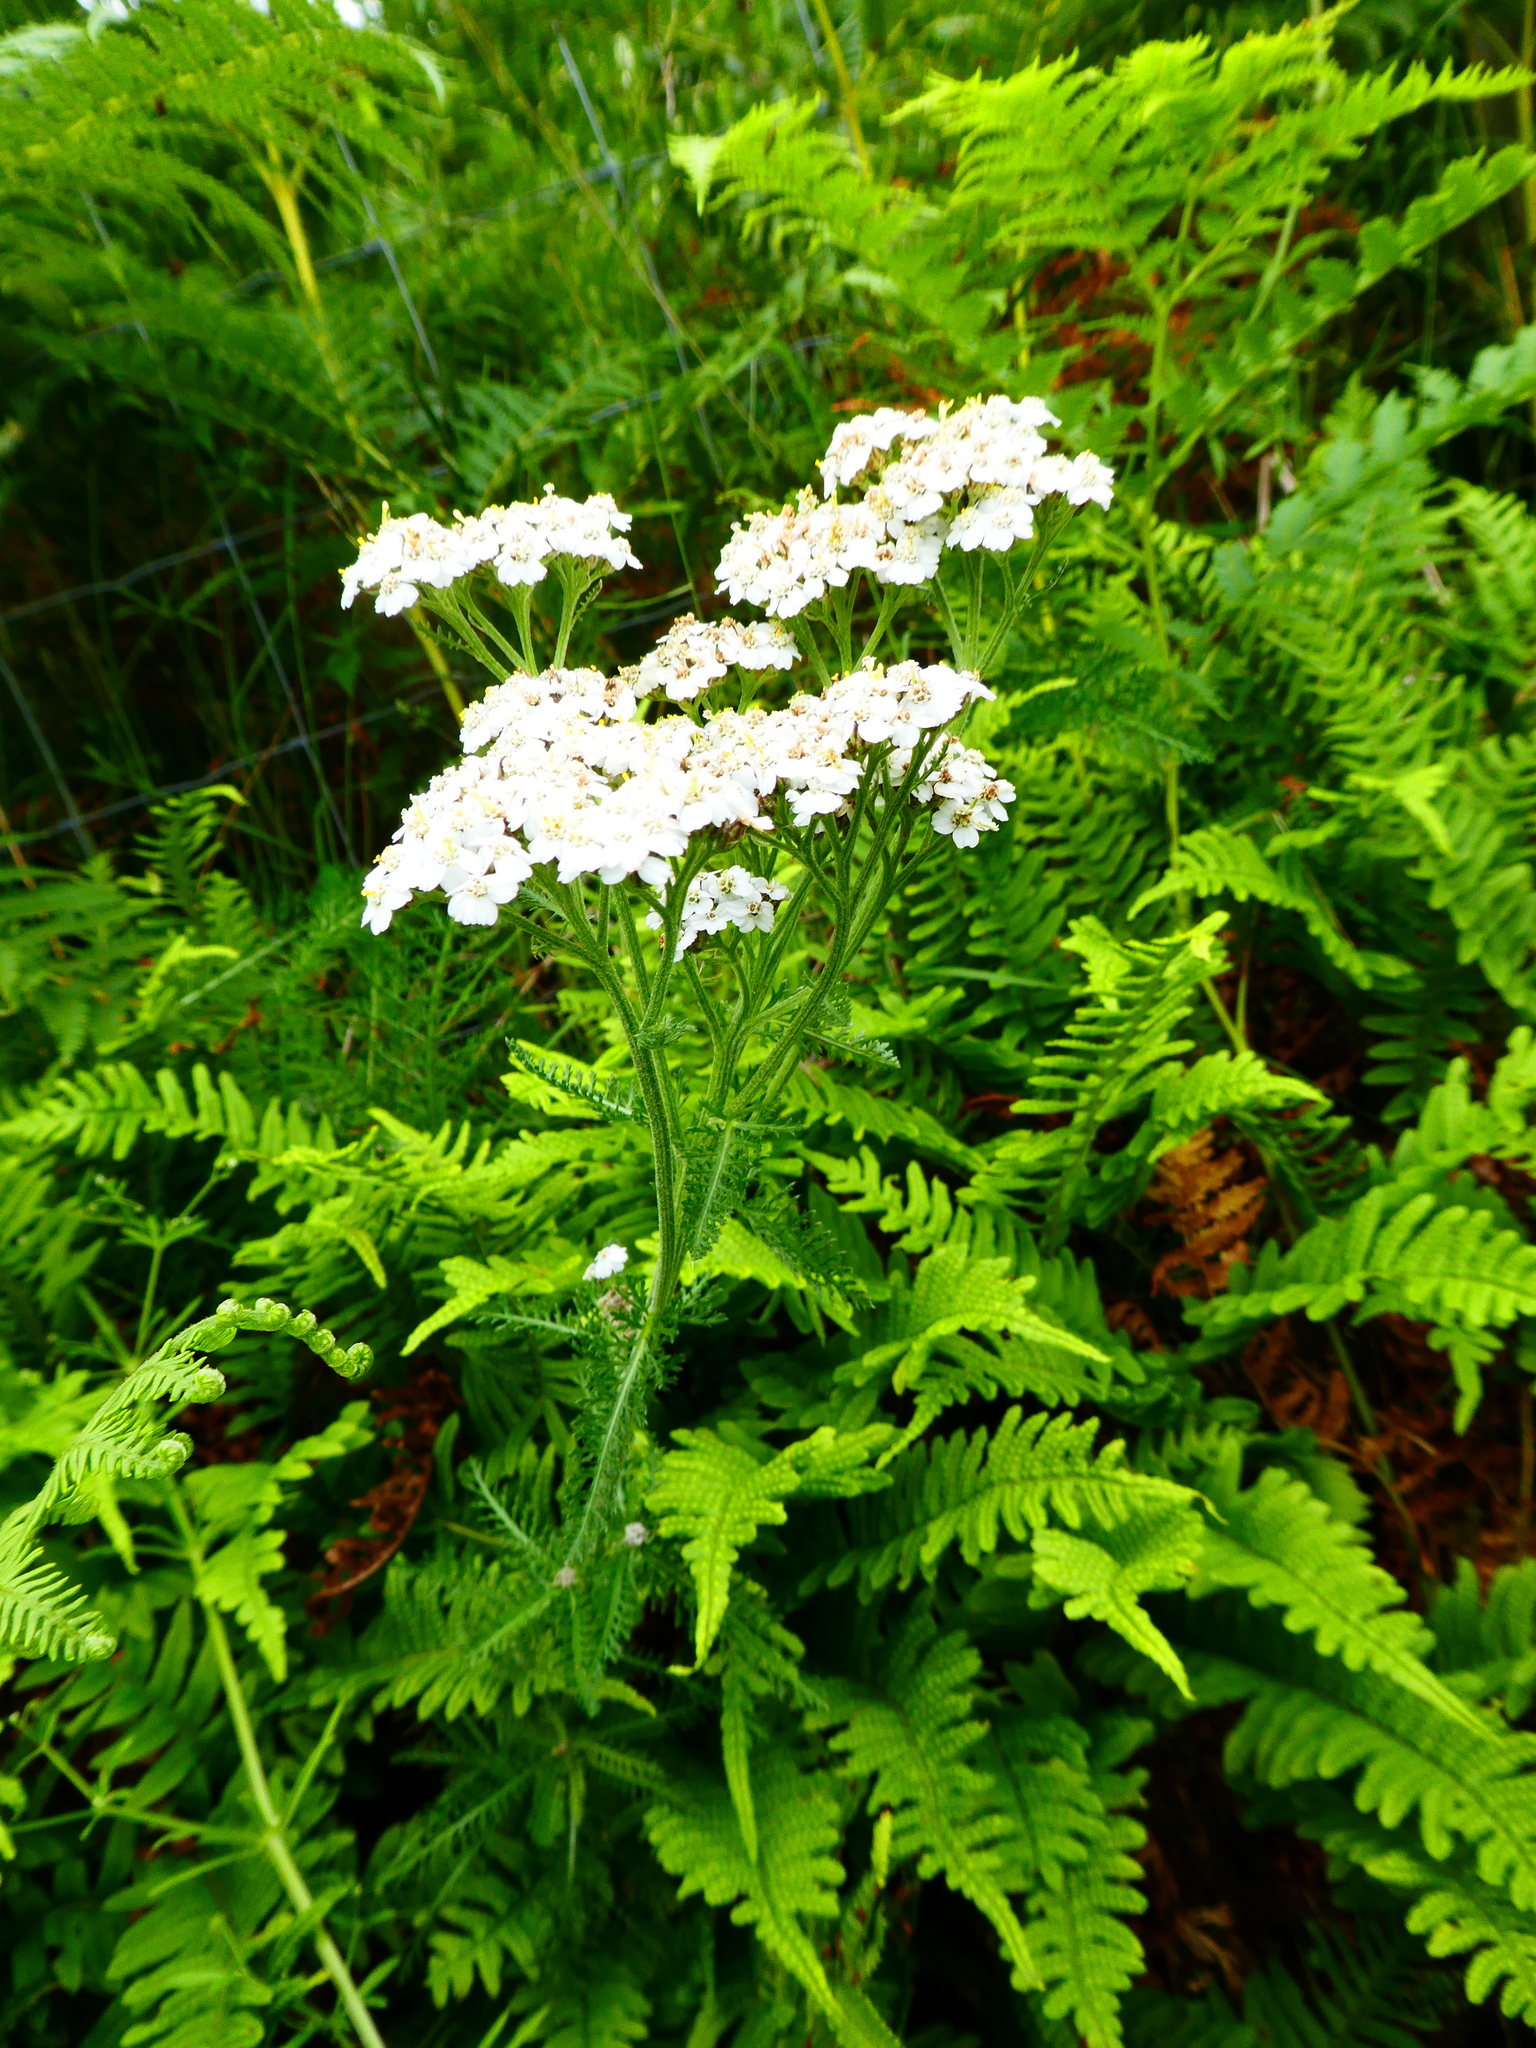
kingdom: Plantae
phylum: Tracheophyta
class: Magnoliopsida
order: Asterales
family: Asteraceae
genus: Achillea
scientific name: Achillea millefolium
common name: Yarrow
